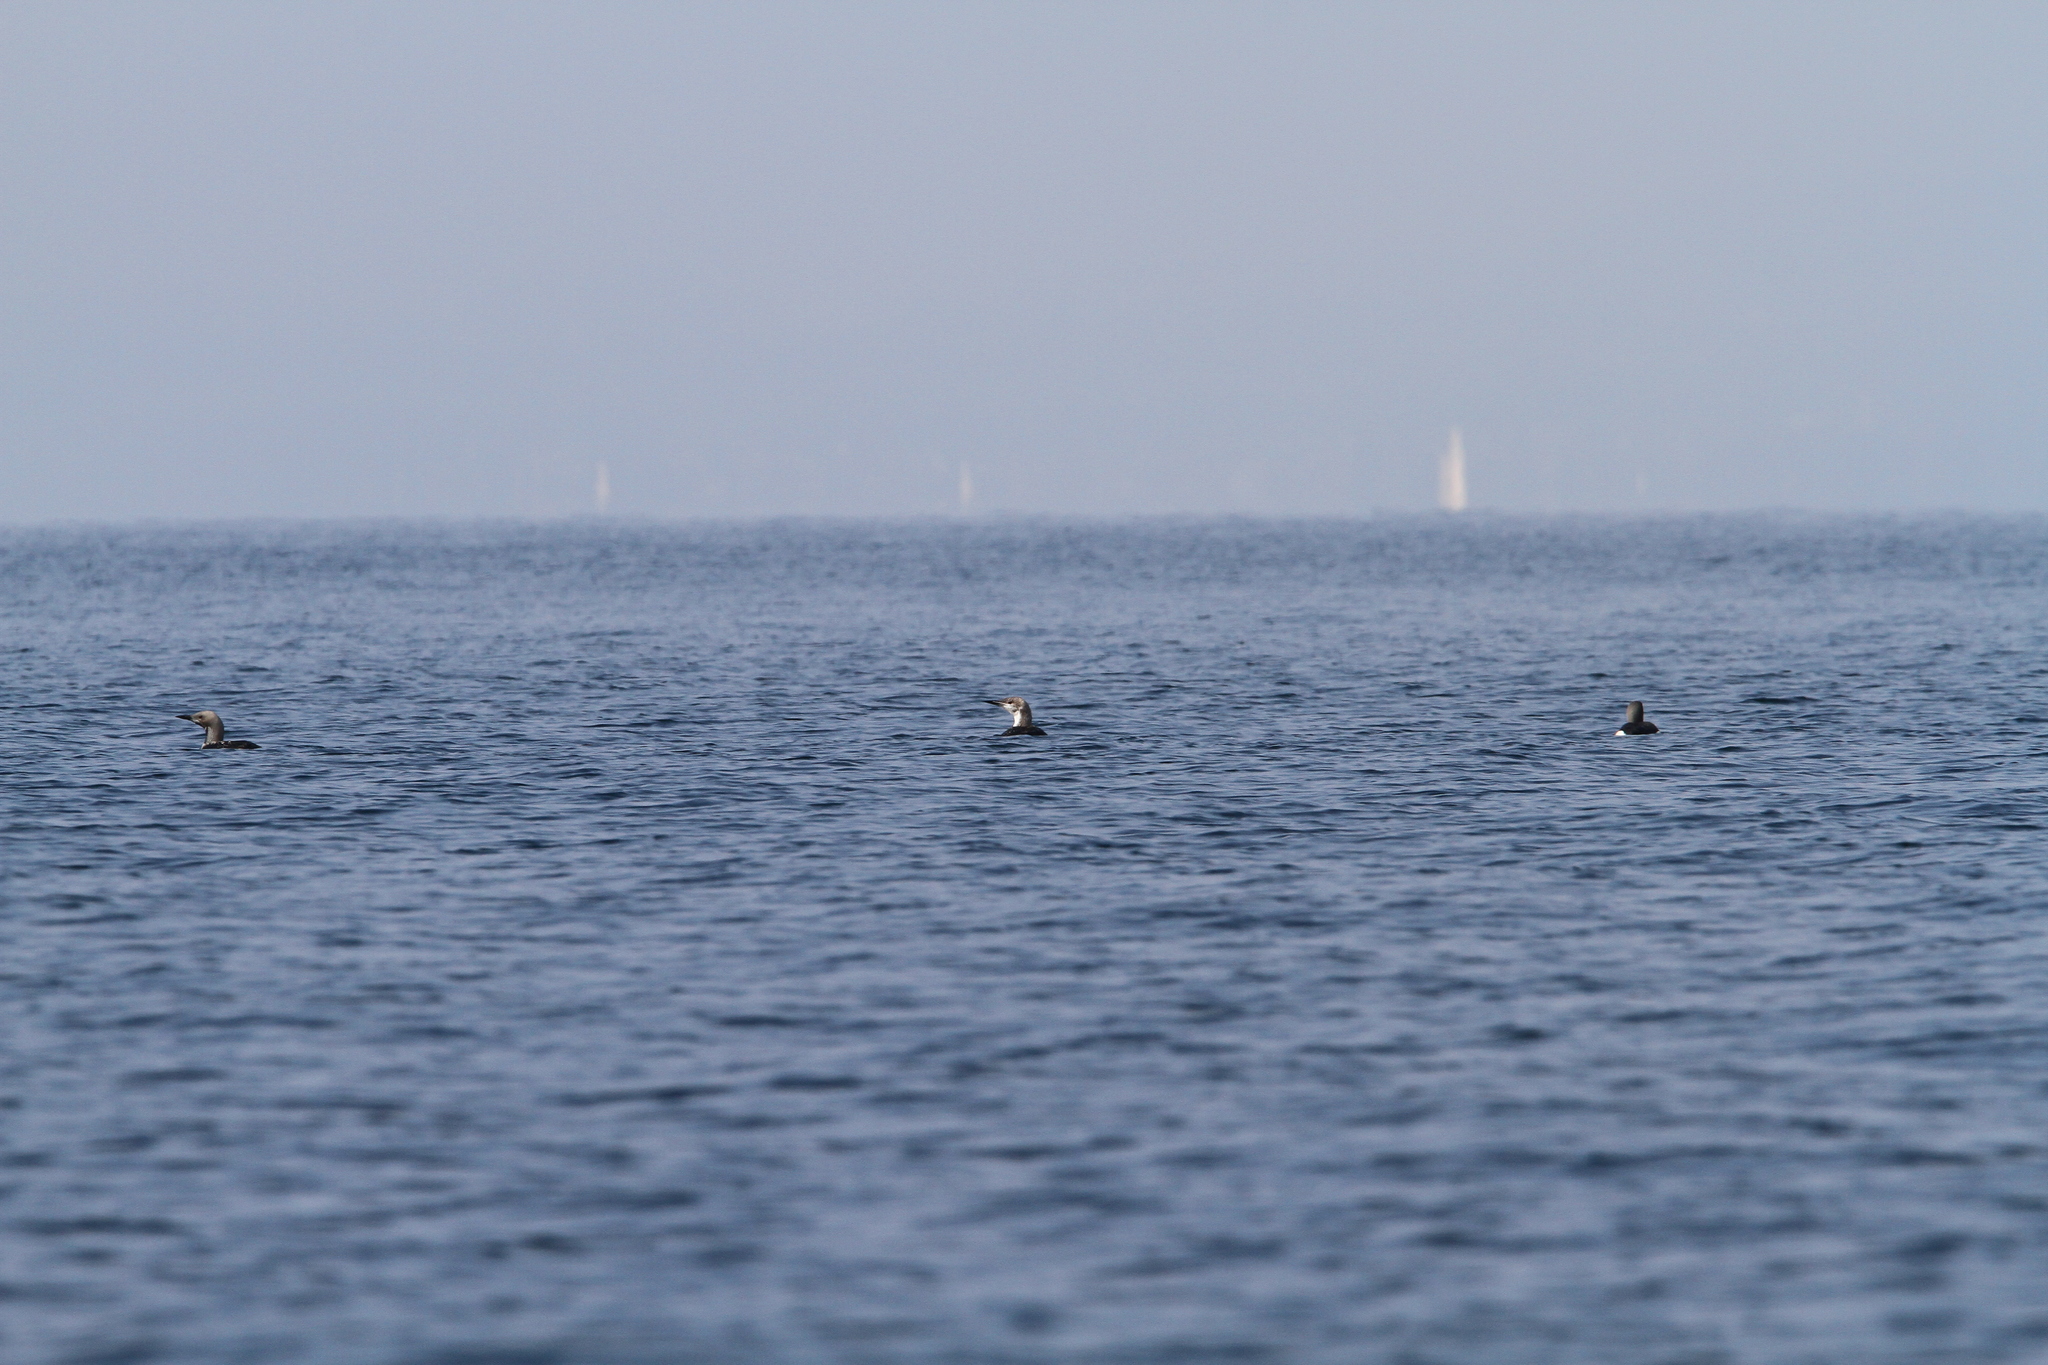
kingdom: Animalia
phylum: Chordata
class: Aves
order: Gaviiformes
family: Gaviidae
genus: Gavia
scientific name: Gavia arctica
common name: Black-throated loon
